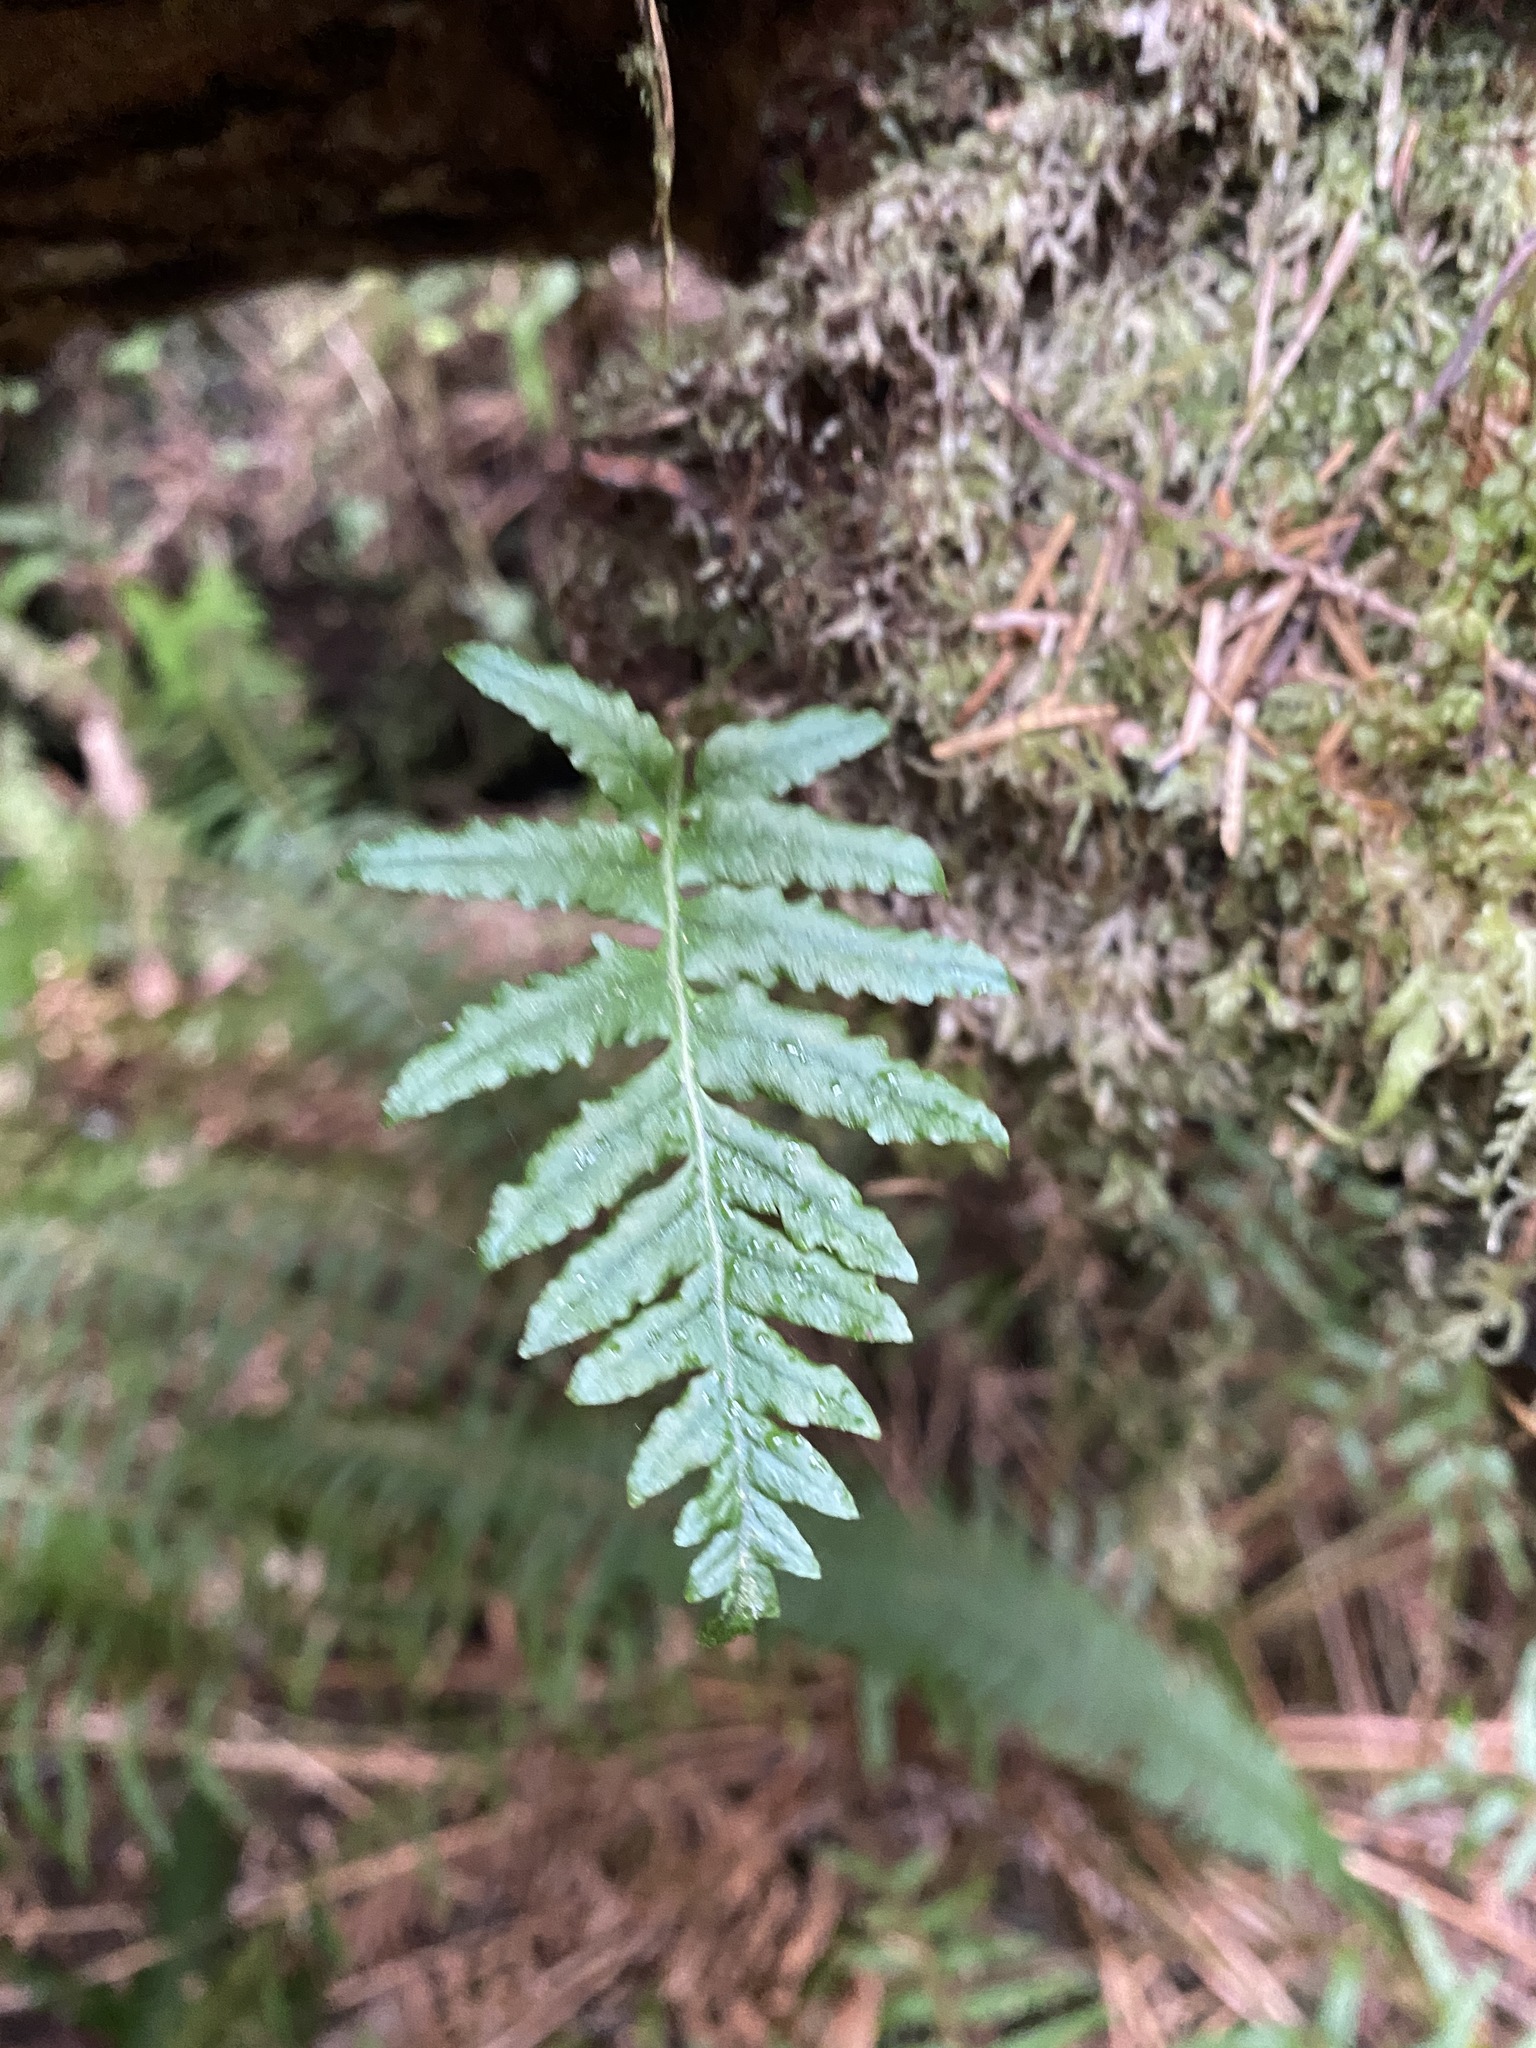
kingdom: Plantae
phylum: Tracheophyta
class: Polypodiopsida
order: Polypodiales
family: Polypodiaceae
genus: Polypodium
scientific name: Polypodium glycyrrhiza
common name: Licorice fern
